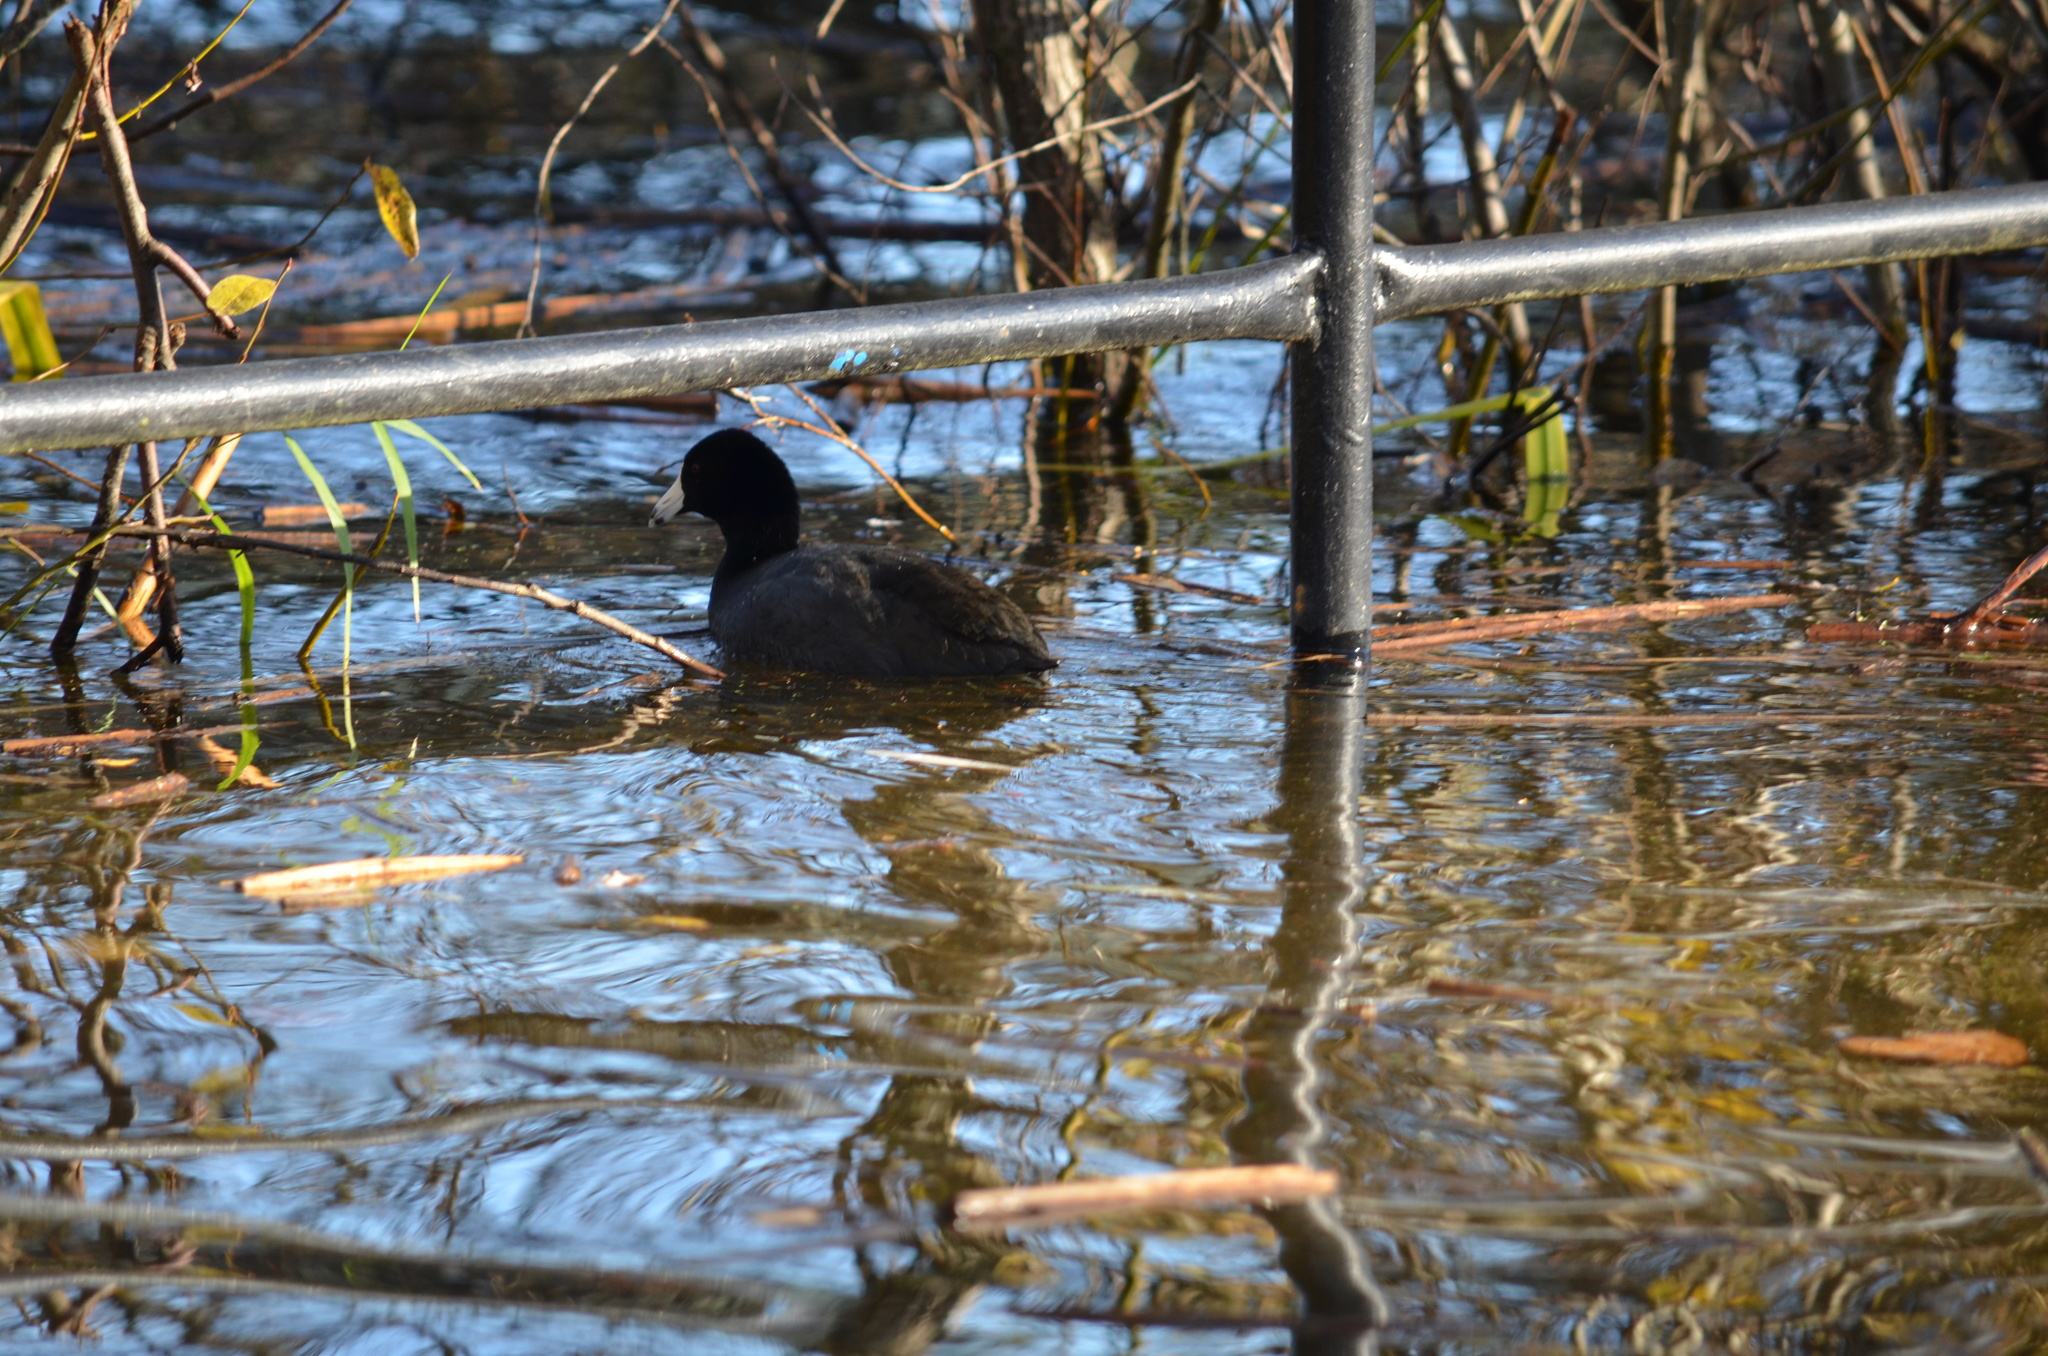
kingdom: Animalia
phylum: Chordata
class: Aves
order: Gruiformes
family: Rallidae
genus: Fulica
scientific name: Fulica americana
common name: American coot
